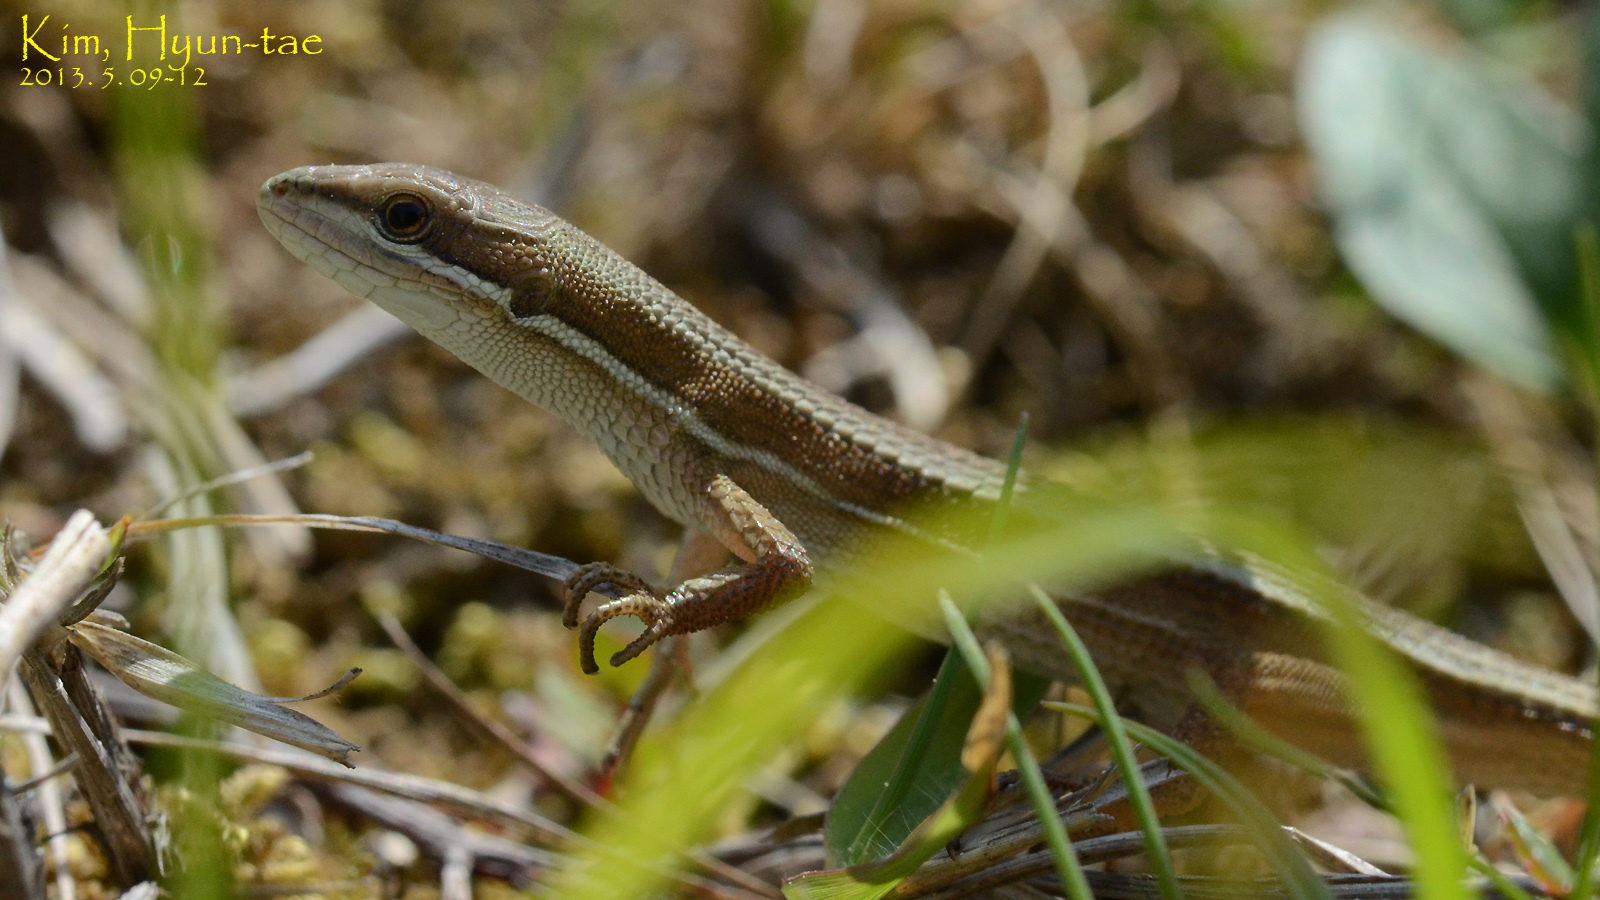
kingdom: Animalia
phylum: Chordata
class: Squamata
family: Lacertidae
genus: Takydromus
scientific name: Takydromus wolteri
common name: Mountain grass lizard
